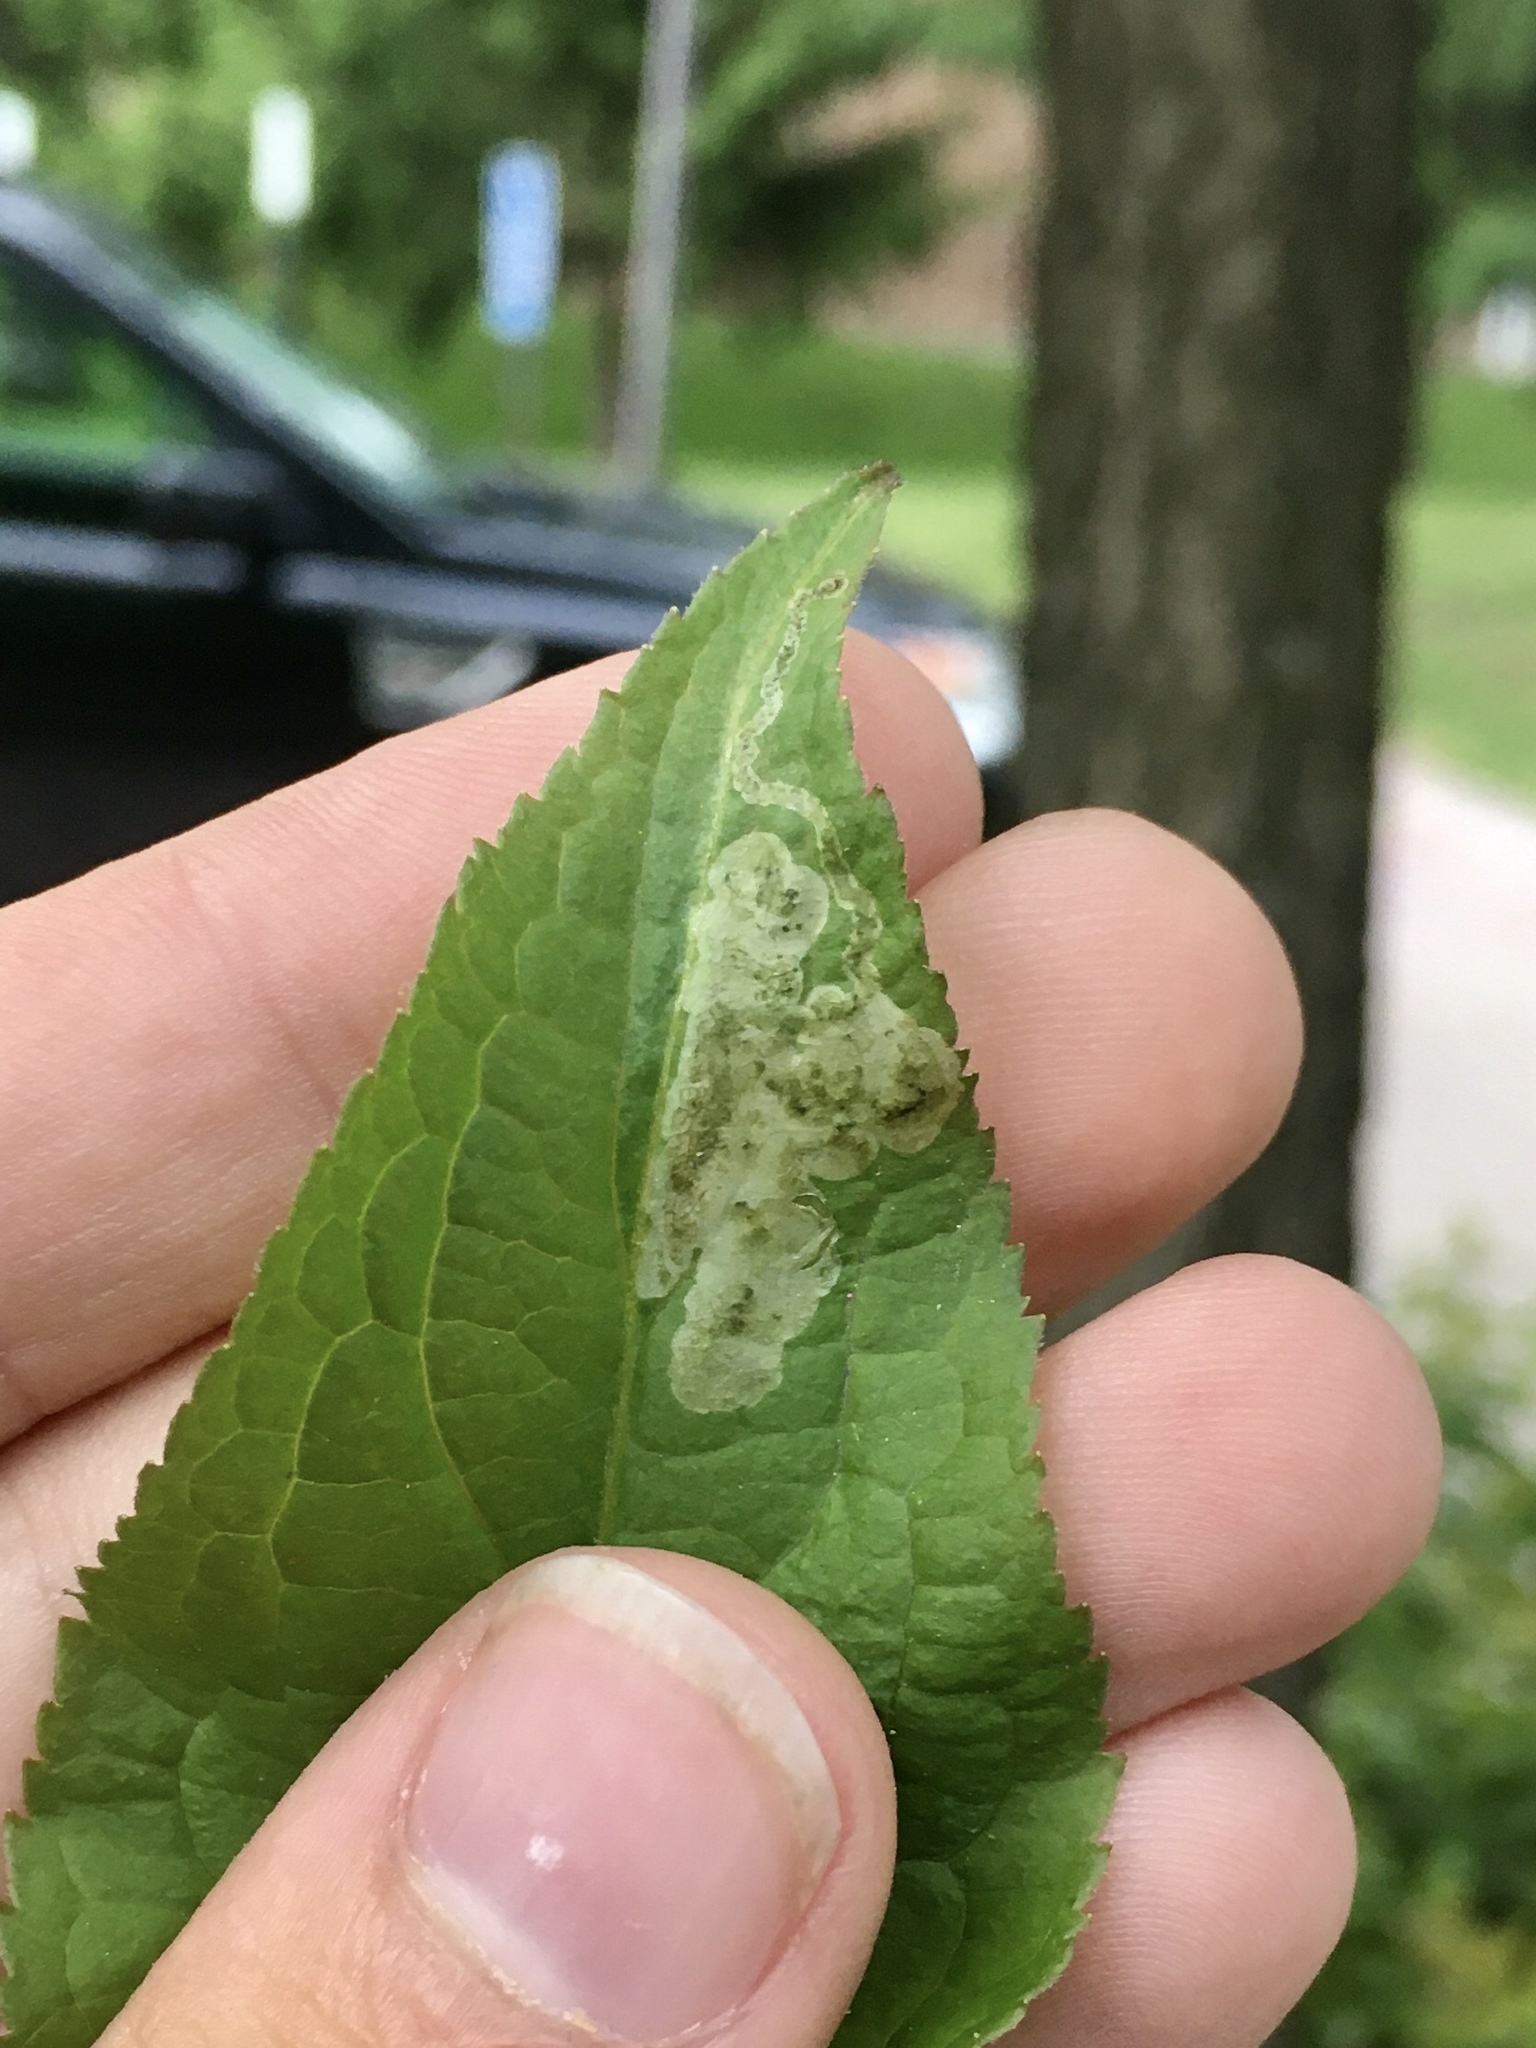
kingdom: Animalia
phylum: Arthropoda
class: Insecta
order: Diptera
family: Agromyzidae
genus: Aulagromyza
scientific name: Aulagromyza orbitalis
